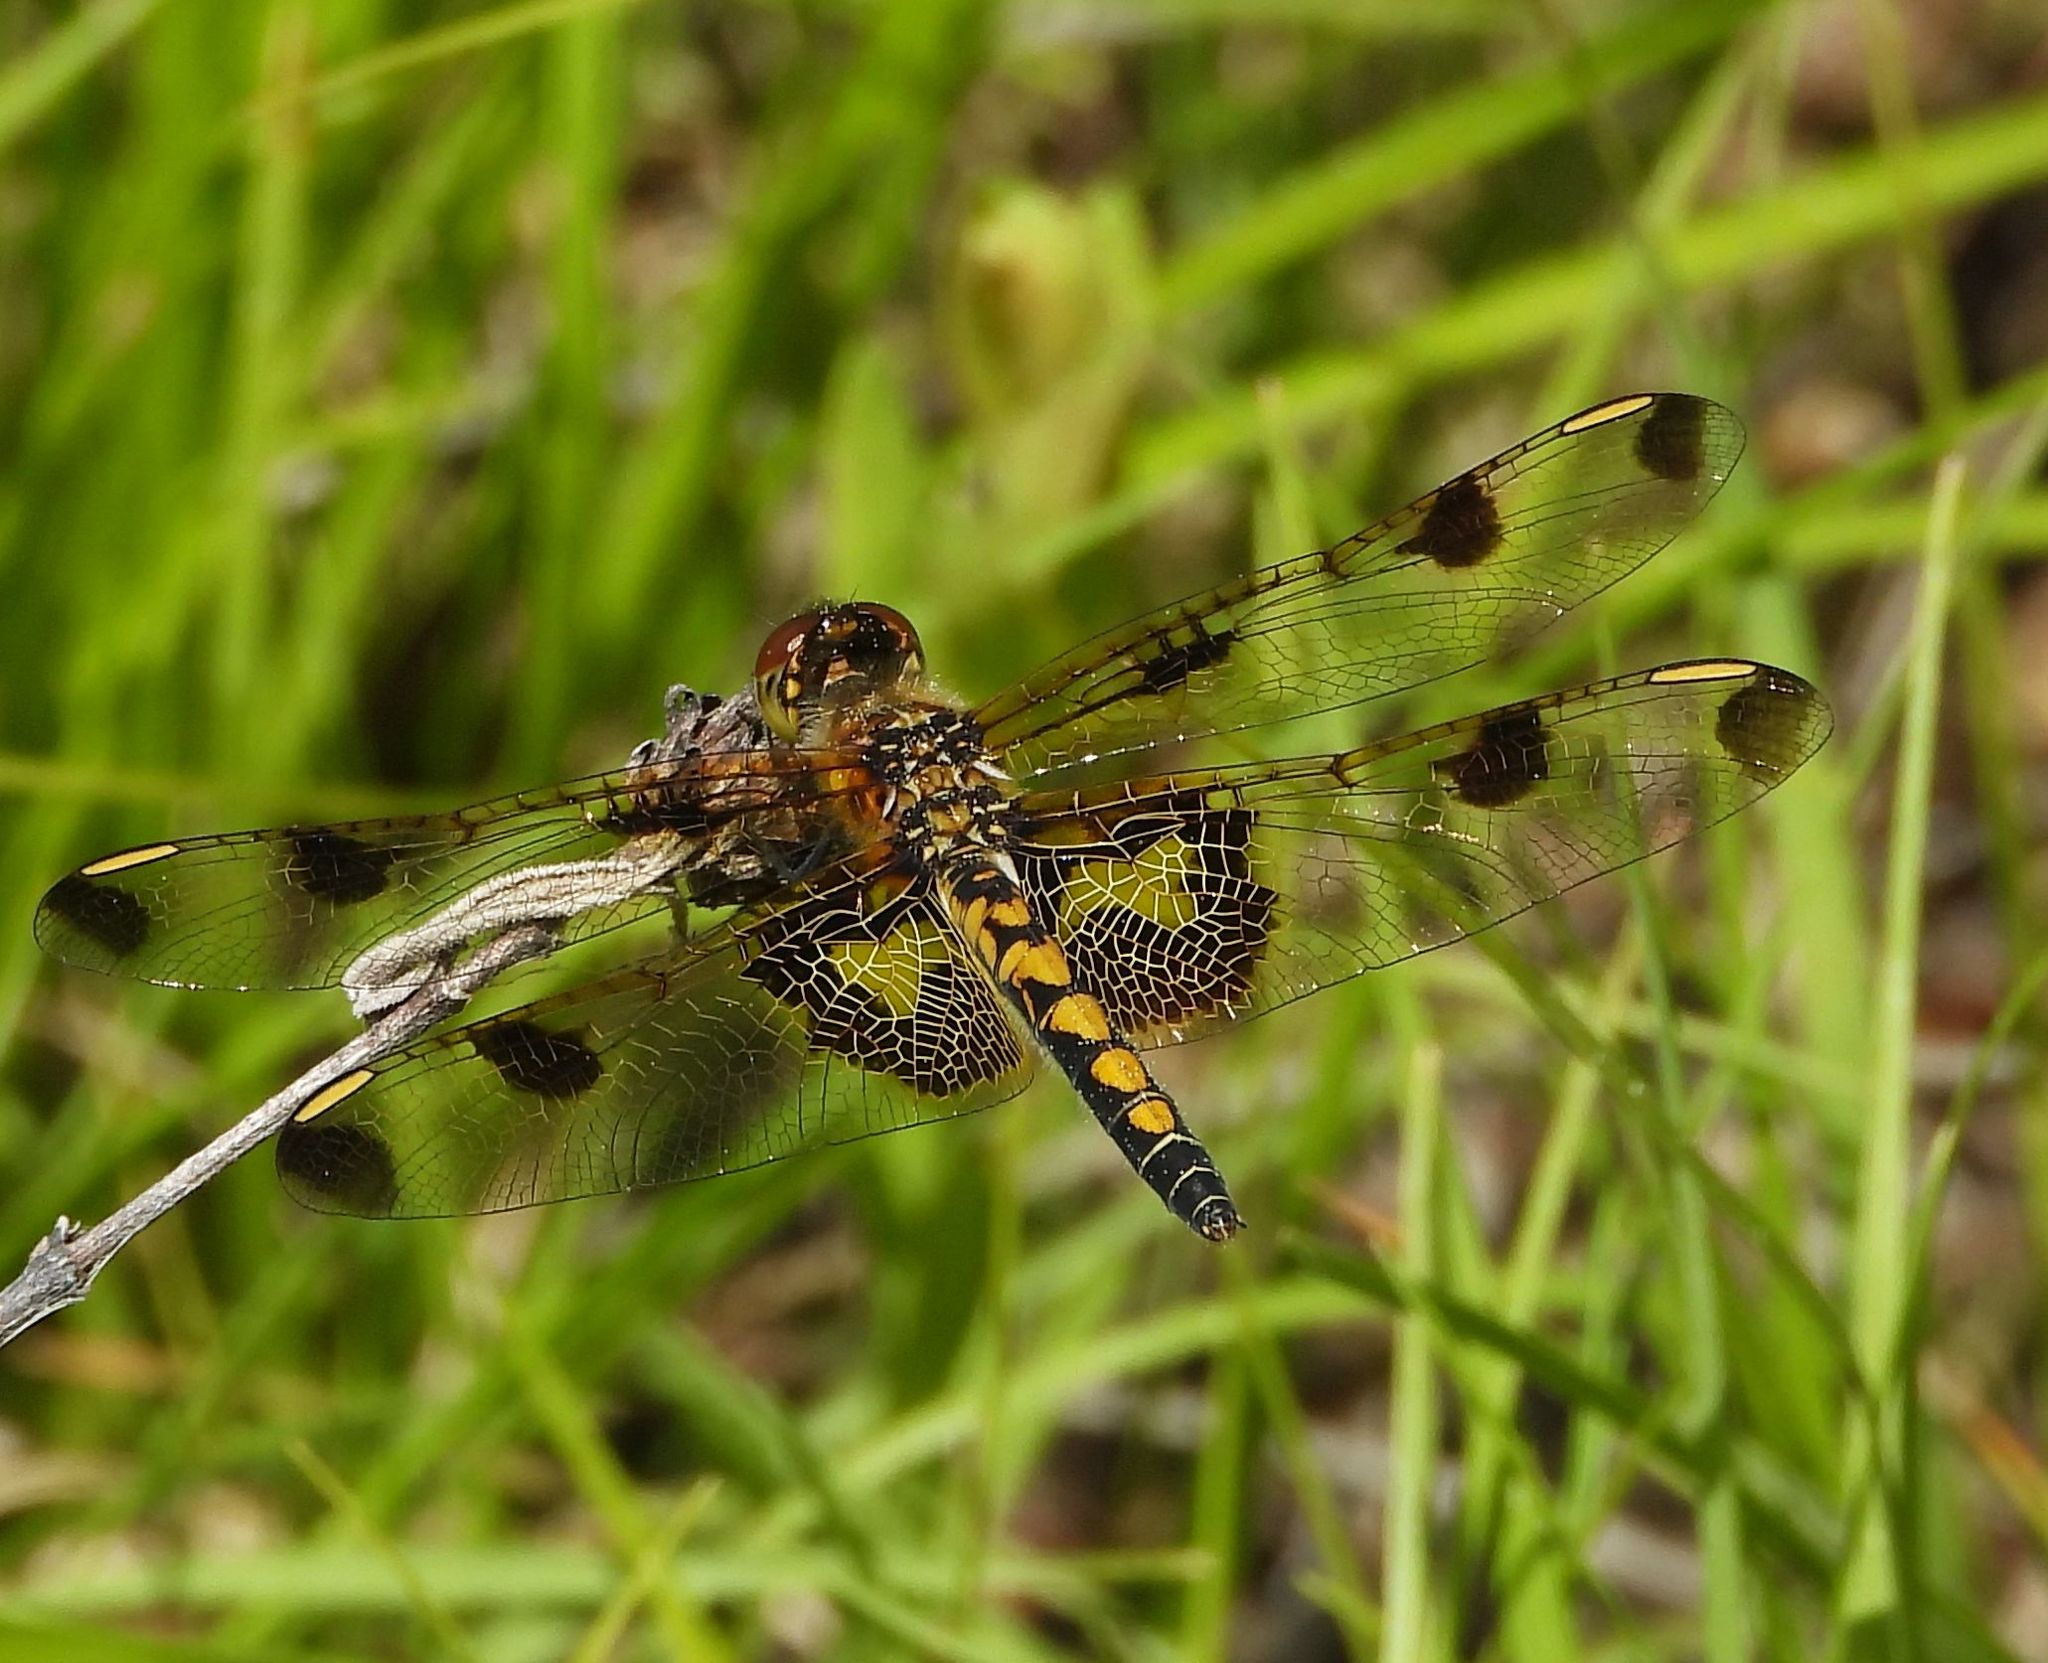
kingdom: Animalia
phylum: Arthropoda
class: Insecta
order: Odonata
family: Libellulidae
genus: Celithemis
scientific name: Celithemis elisa
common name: Calico pennant
